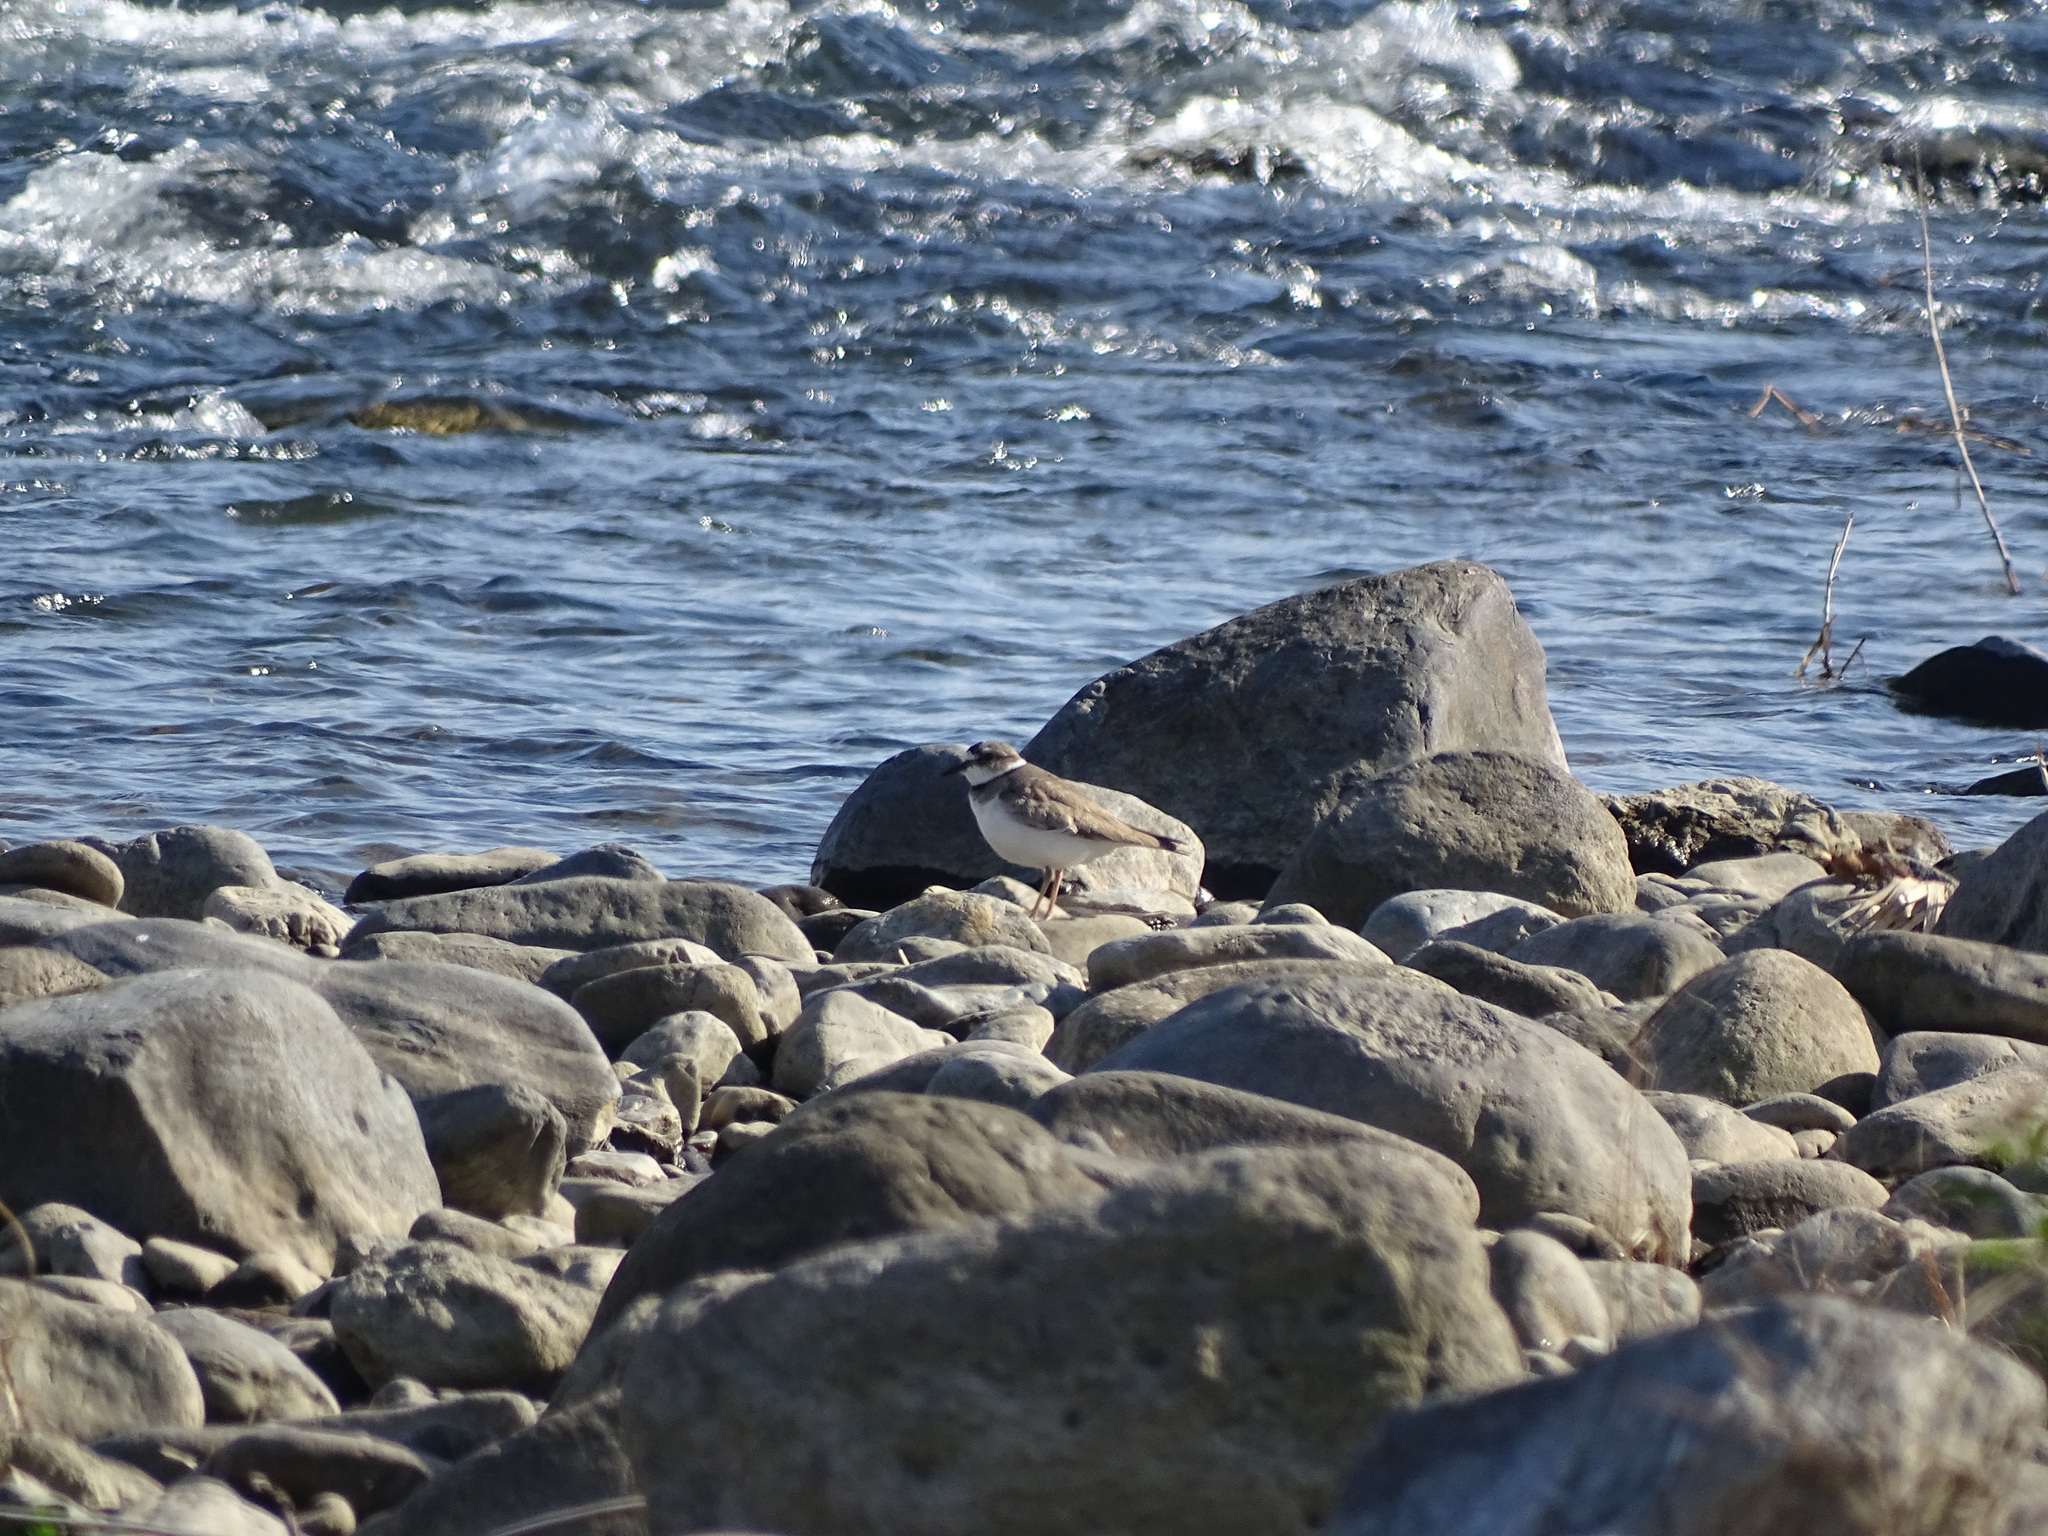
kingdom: Animalia
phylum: Chordata
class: Aves
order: Charadriiformes
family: Charadriidae
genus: Charadrius
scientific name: Charadrius placidus
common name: Long-billed plover
